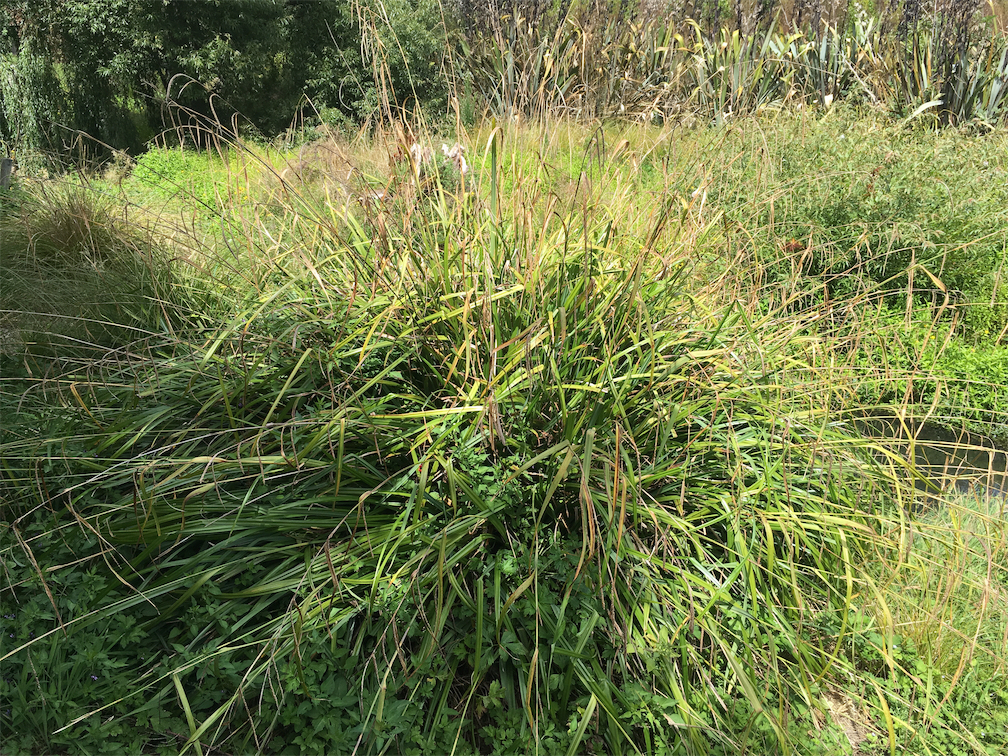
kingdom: Plantae
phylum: Tracheophyta
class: Liliopsida
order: Poales
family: Cyperaceae
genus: Carex
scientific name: Carex pendula
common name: Pendulous sedge
